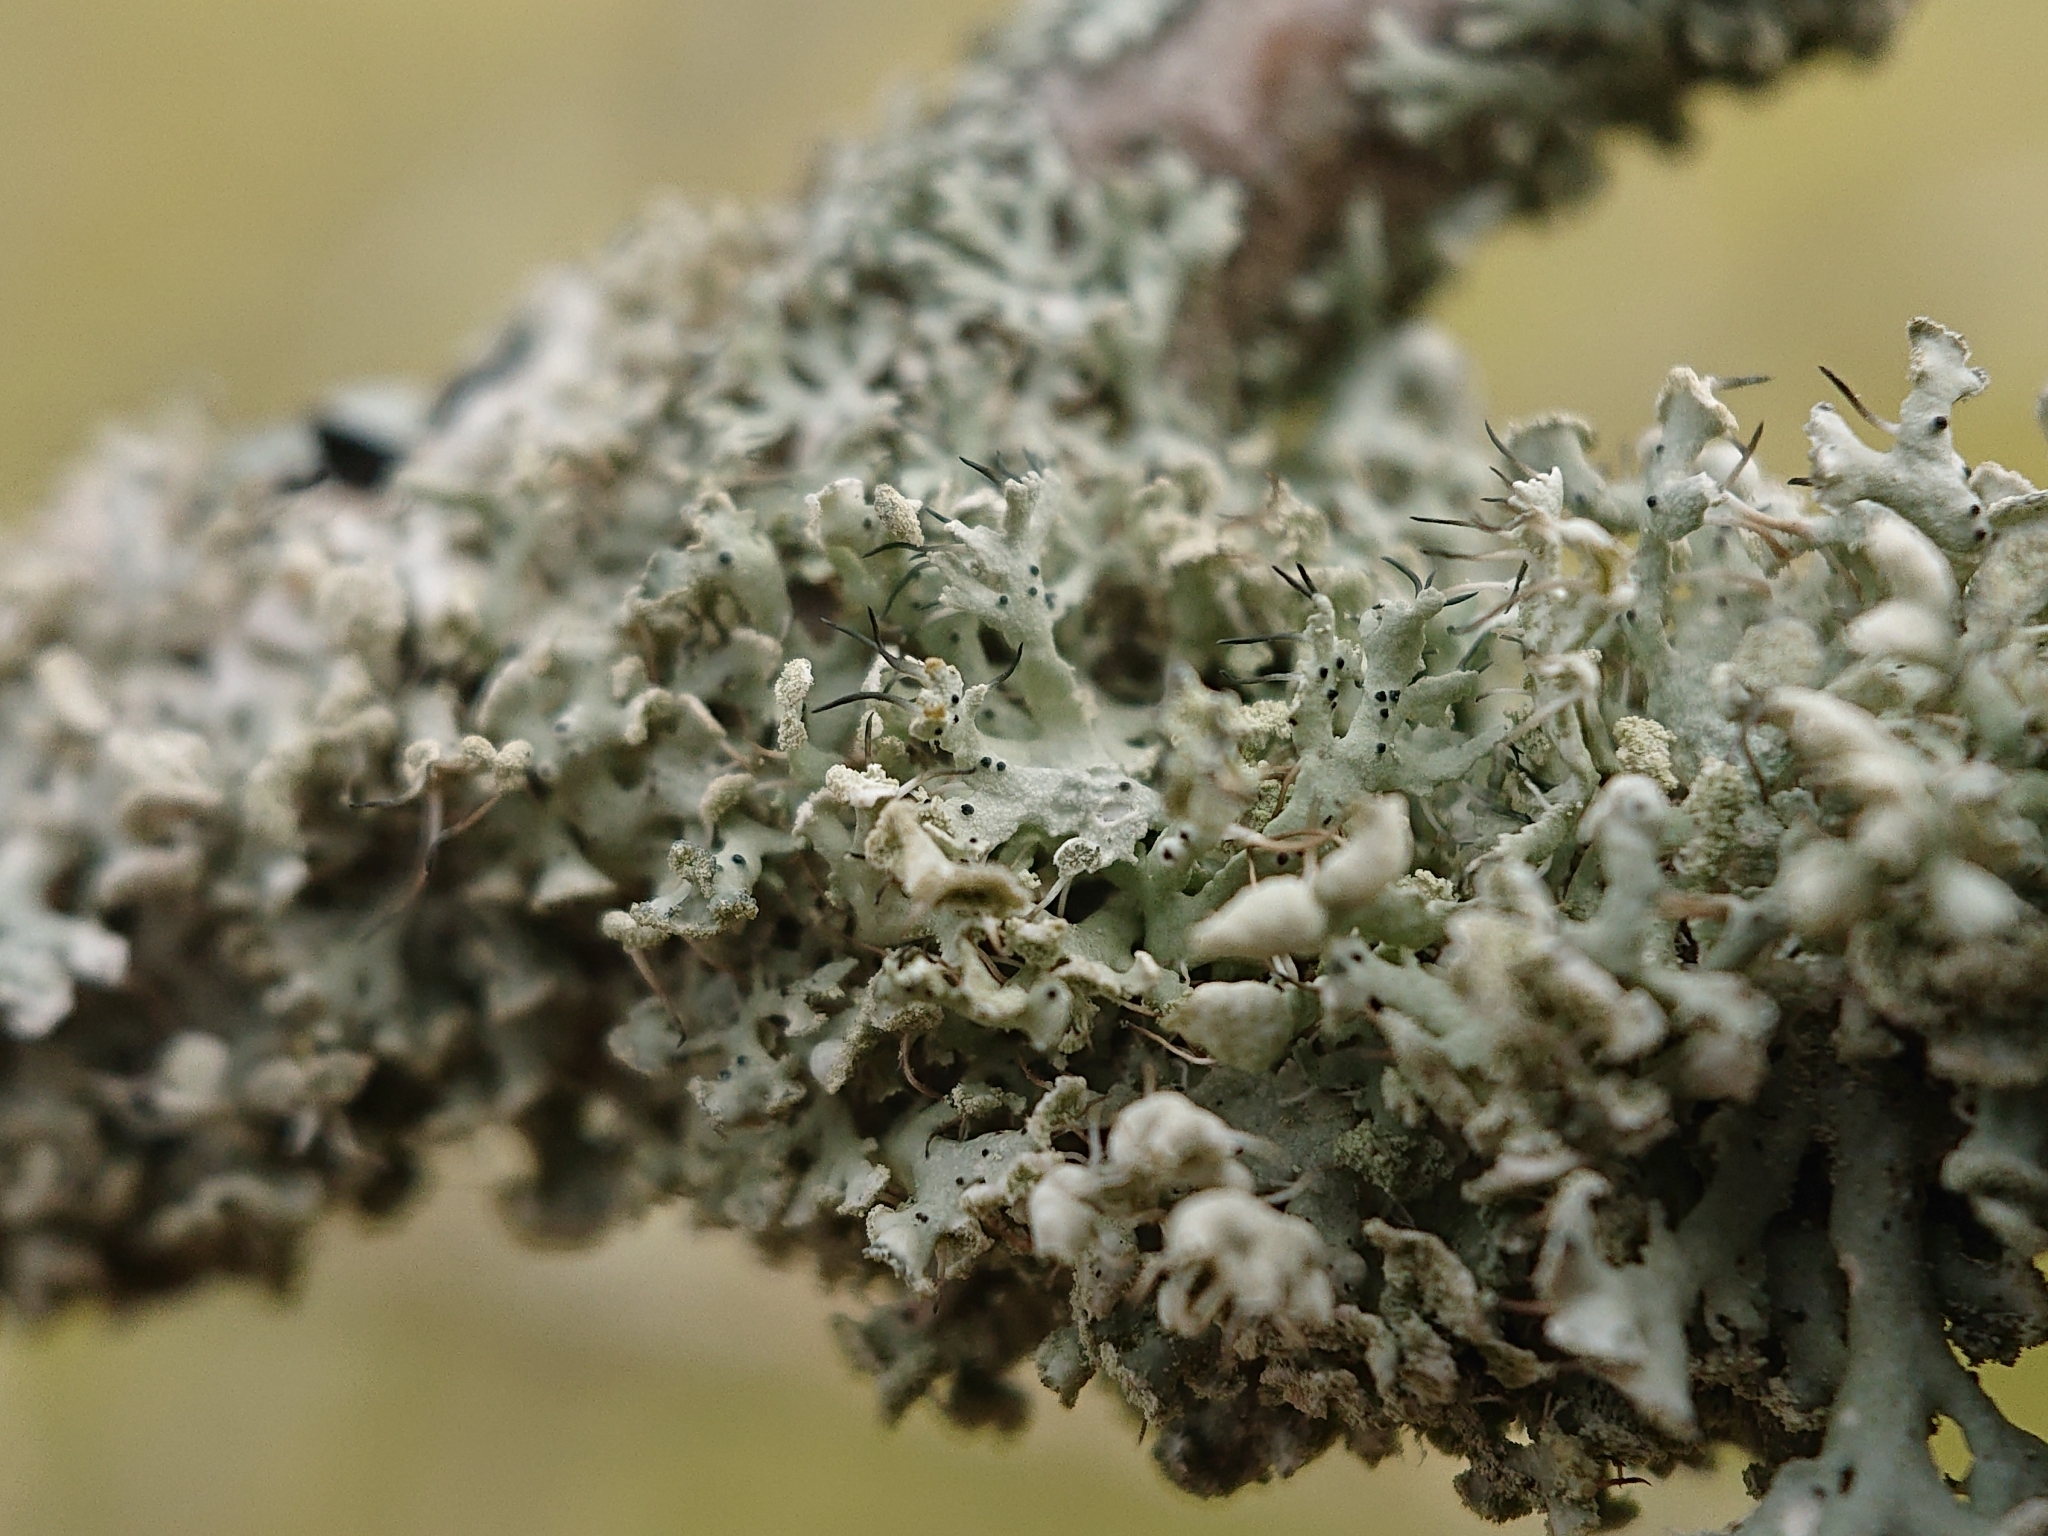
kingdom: Fungi
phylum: Ascomycota
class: Lecanoromycetes
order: Caliciales
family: Physciaceae
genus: Physcia
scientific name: Physcia adscendens
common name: Hooded rosette lichen
